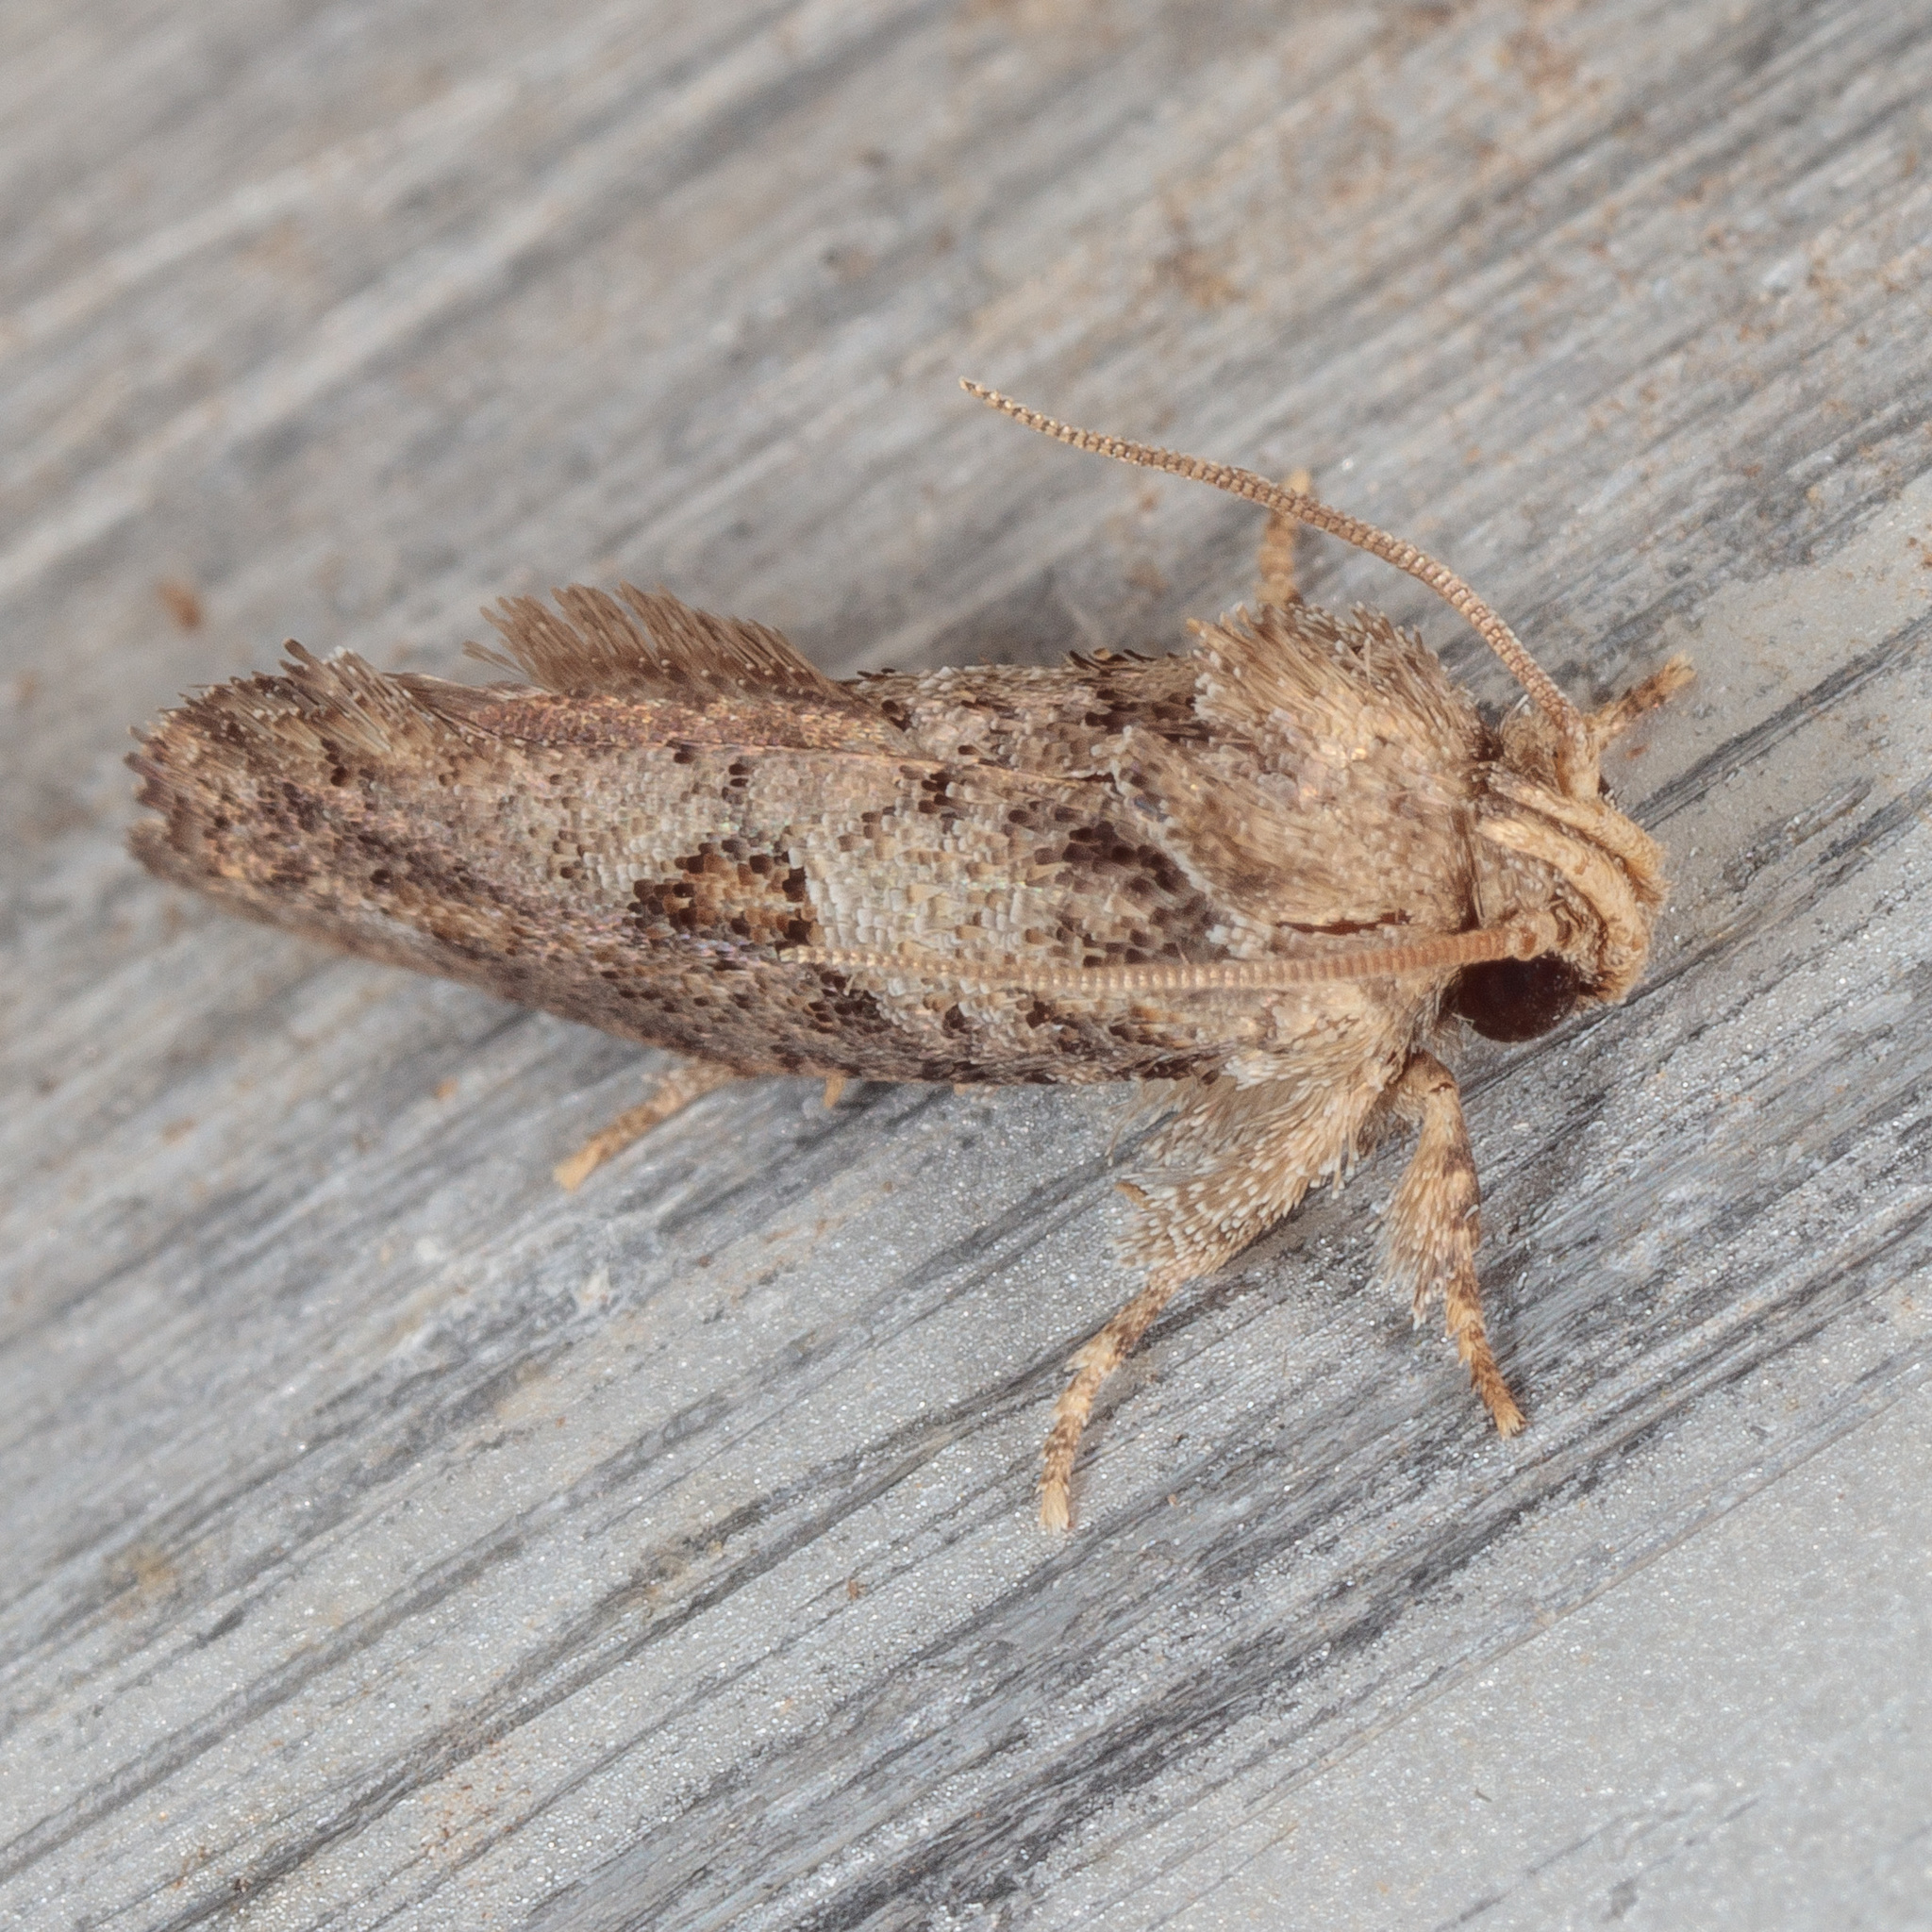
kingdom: Animalia
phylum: Arthropoda
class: Insecta
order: Lepidoptera
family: Tineidae
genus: Acrolophus
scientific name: Acrolophus piger
